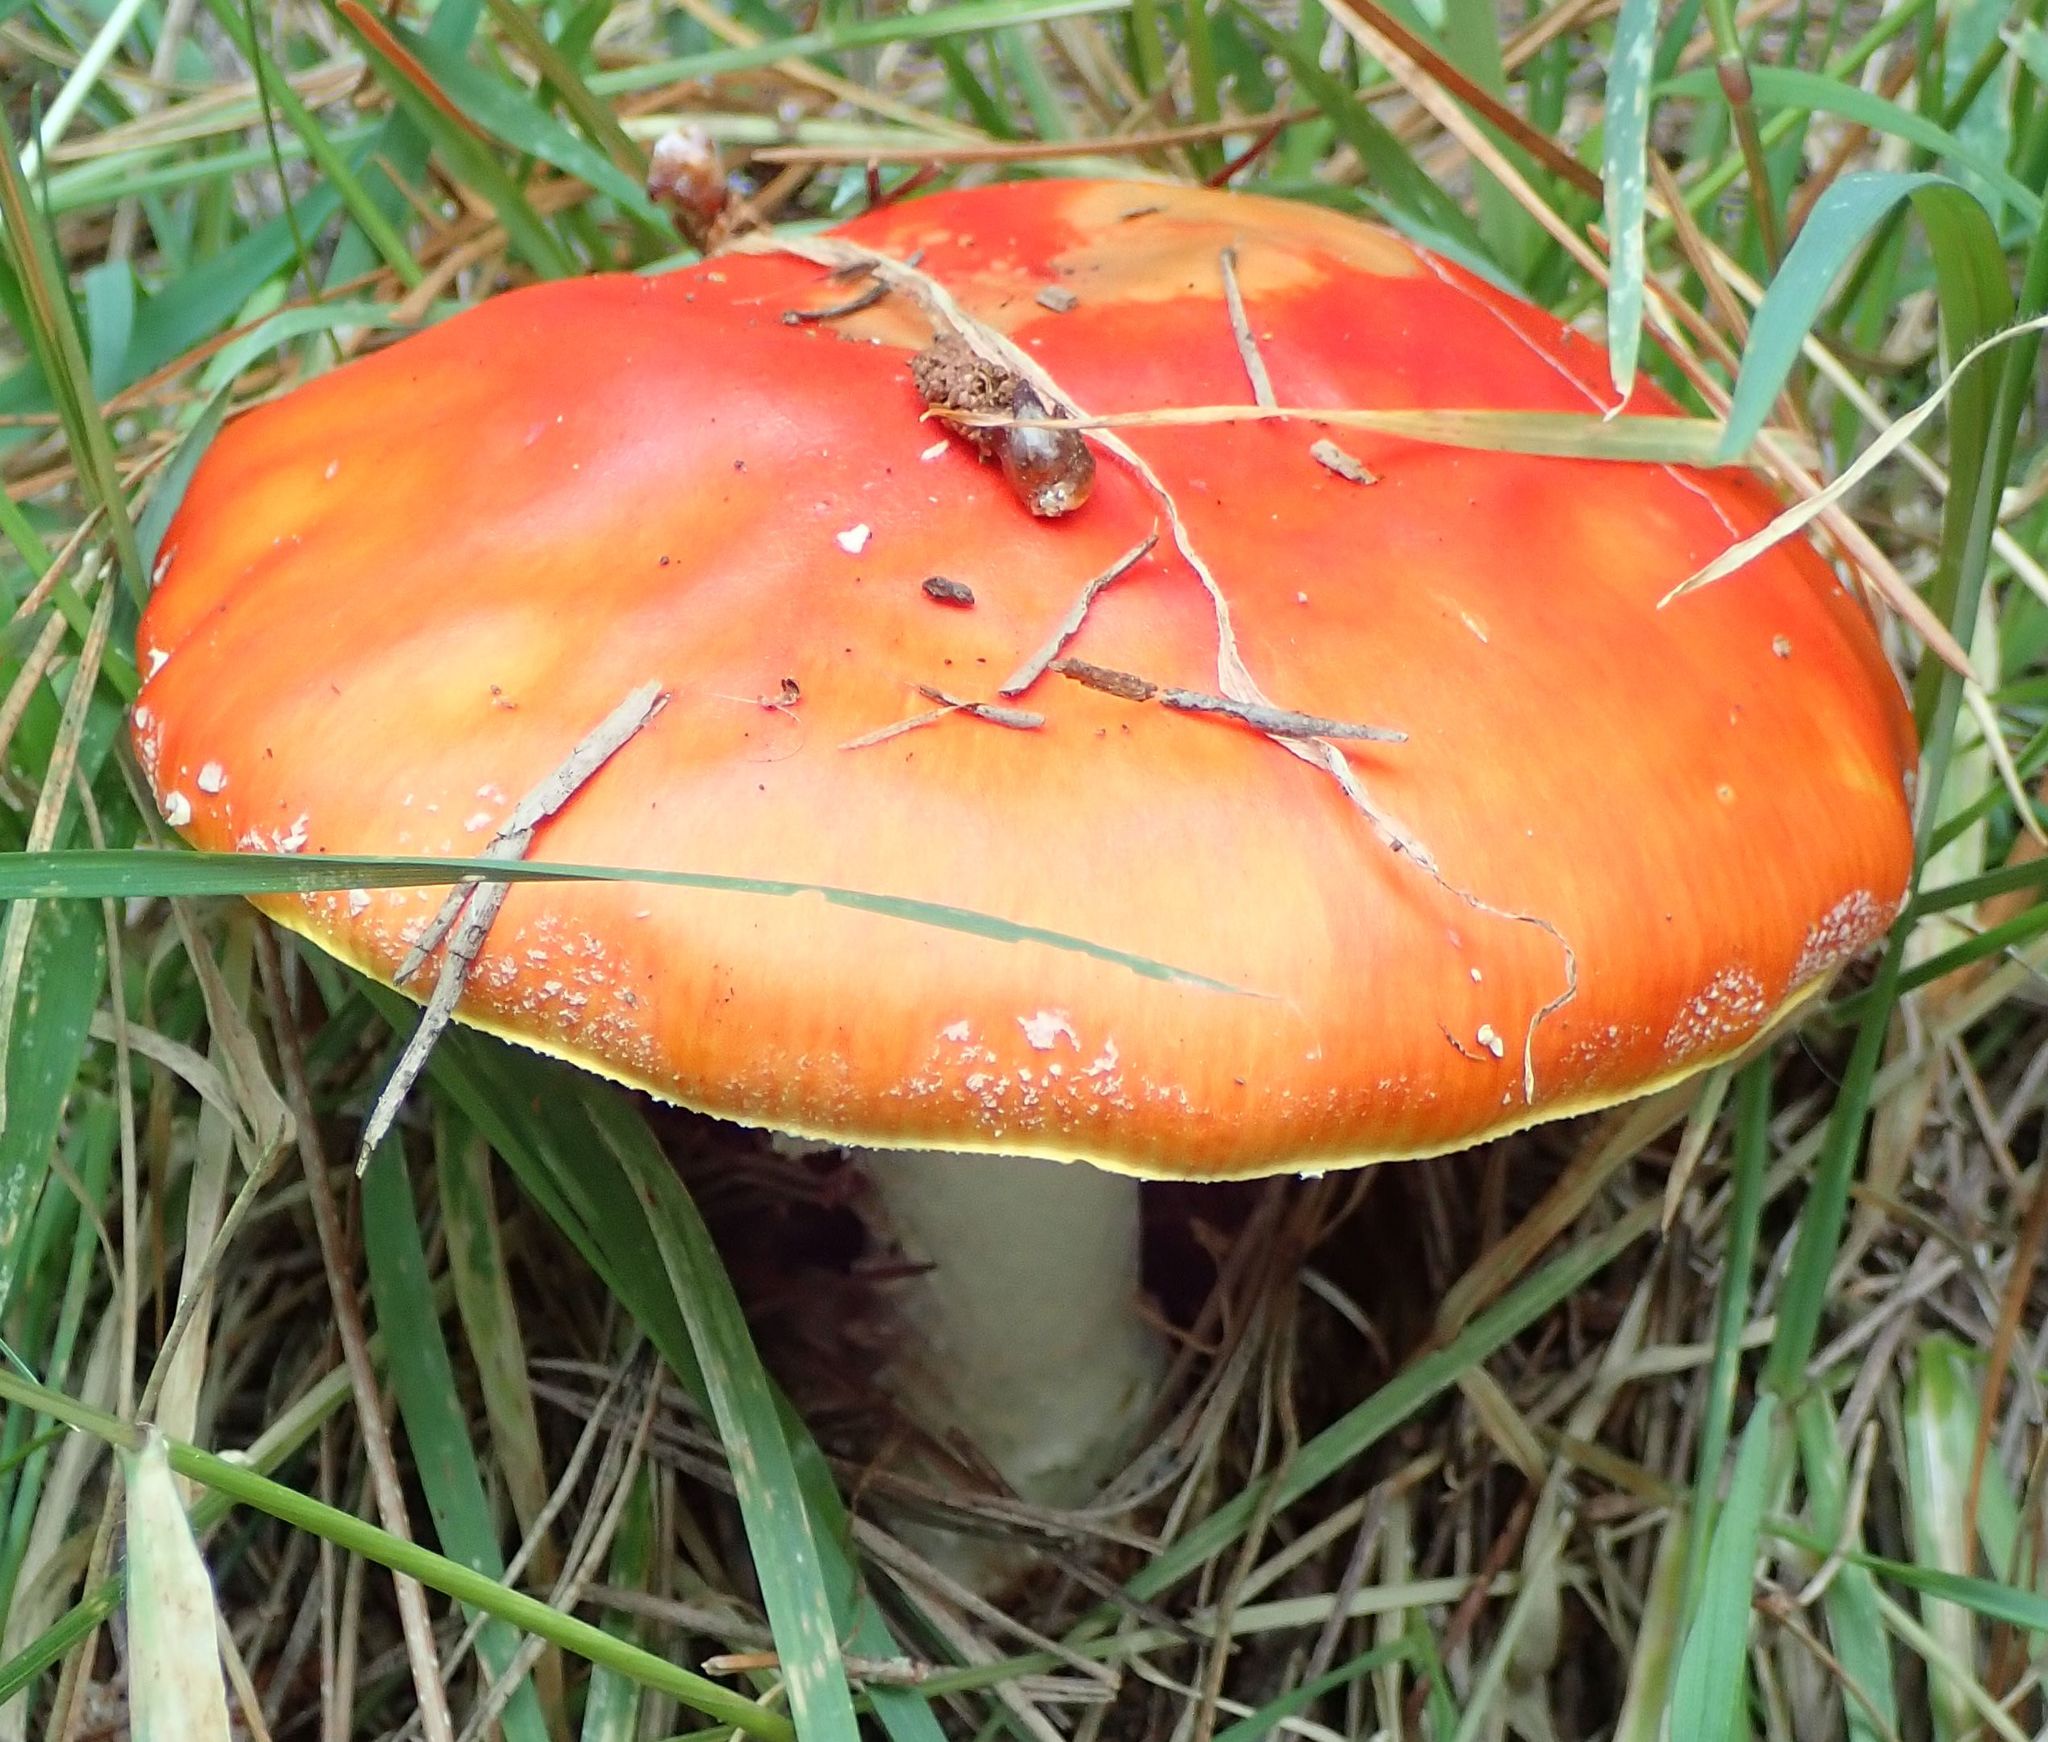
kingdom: Fungi
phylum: Basidiomycota
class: Agaricomycetes
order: Agaricales
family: Amanitaceae
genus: Amanita
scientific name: Amanita muscaria
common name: Fly agaric
